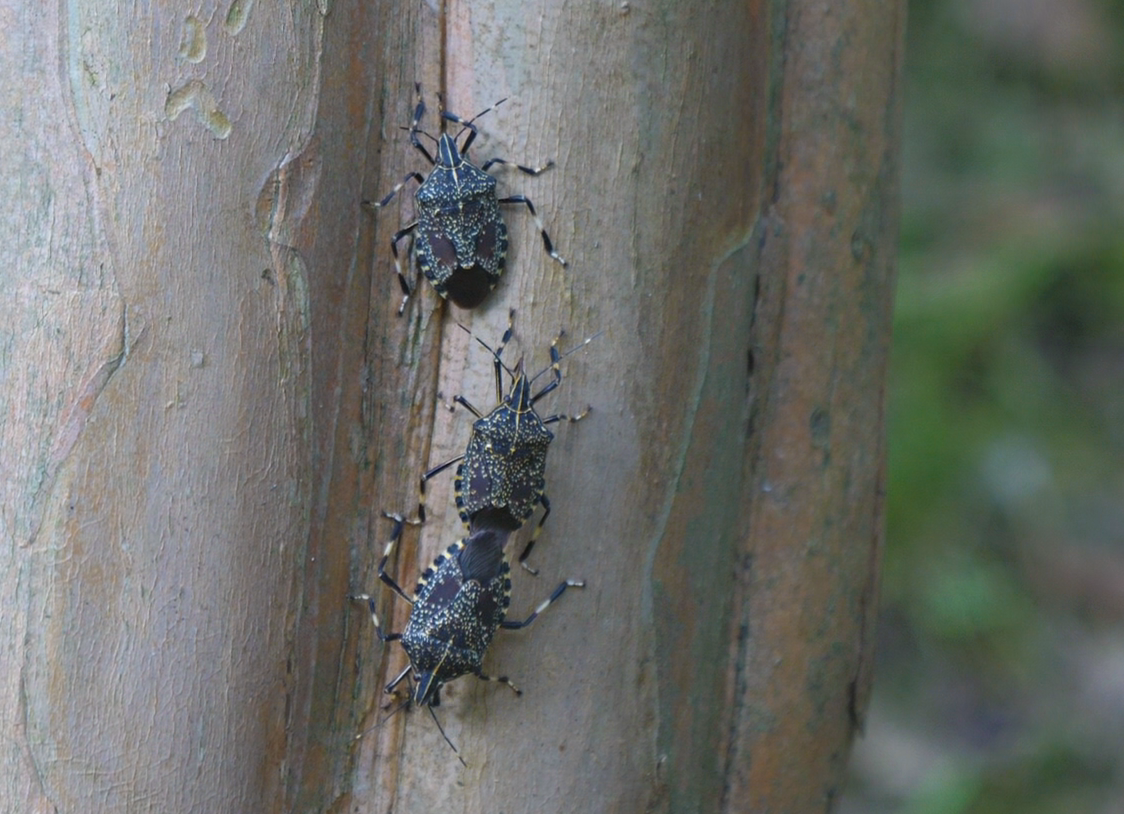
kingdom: Animalia
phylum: Arthropoda
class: Insecta
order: Hemiptera
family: Pentatomidae
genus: Erthesina
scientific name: Erthesina fullo
